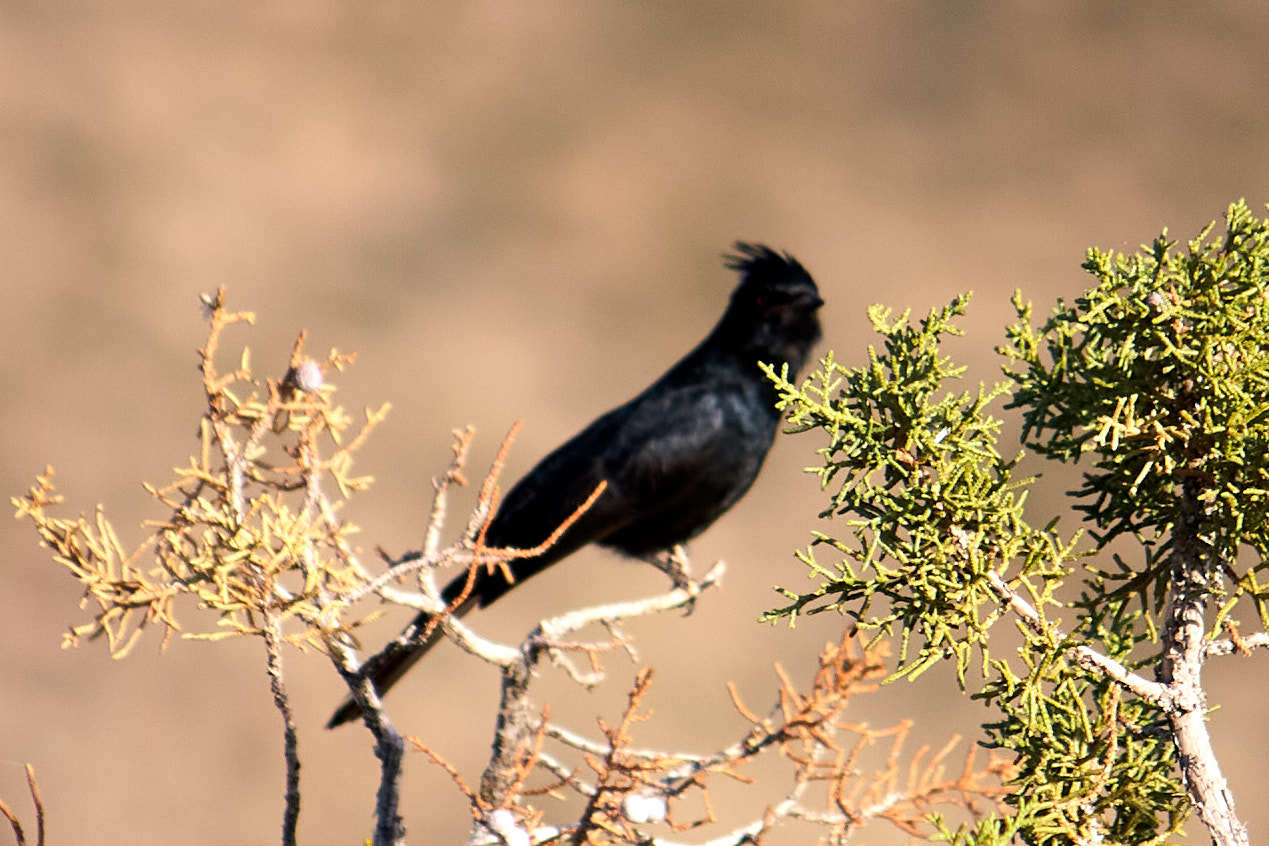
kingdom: Animalia
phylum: Chordata
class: Aves
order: Passeriformes
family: Ptilogonatidae
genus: Phainopepla
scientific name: Phainopepla nitens
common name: Phainopepla
